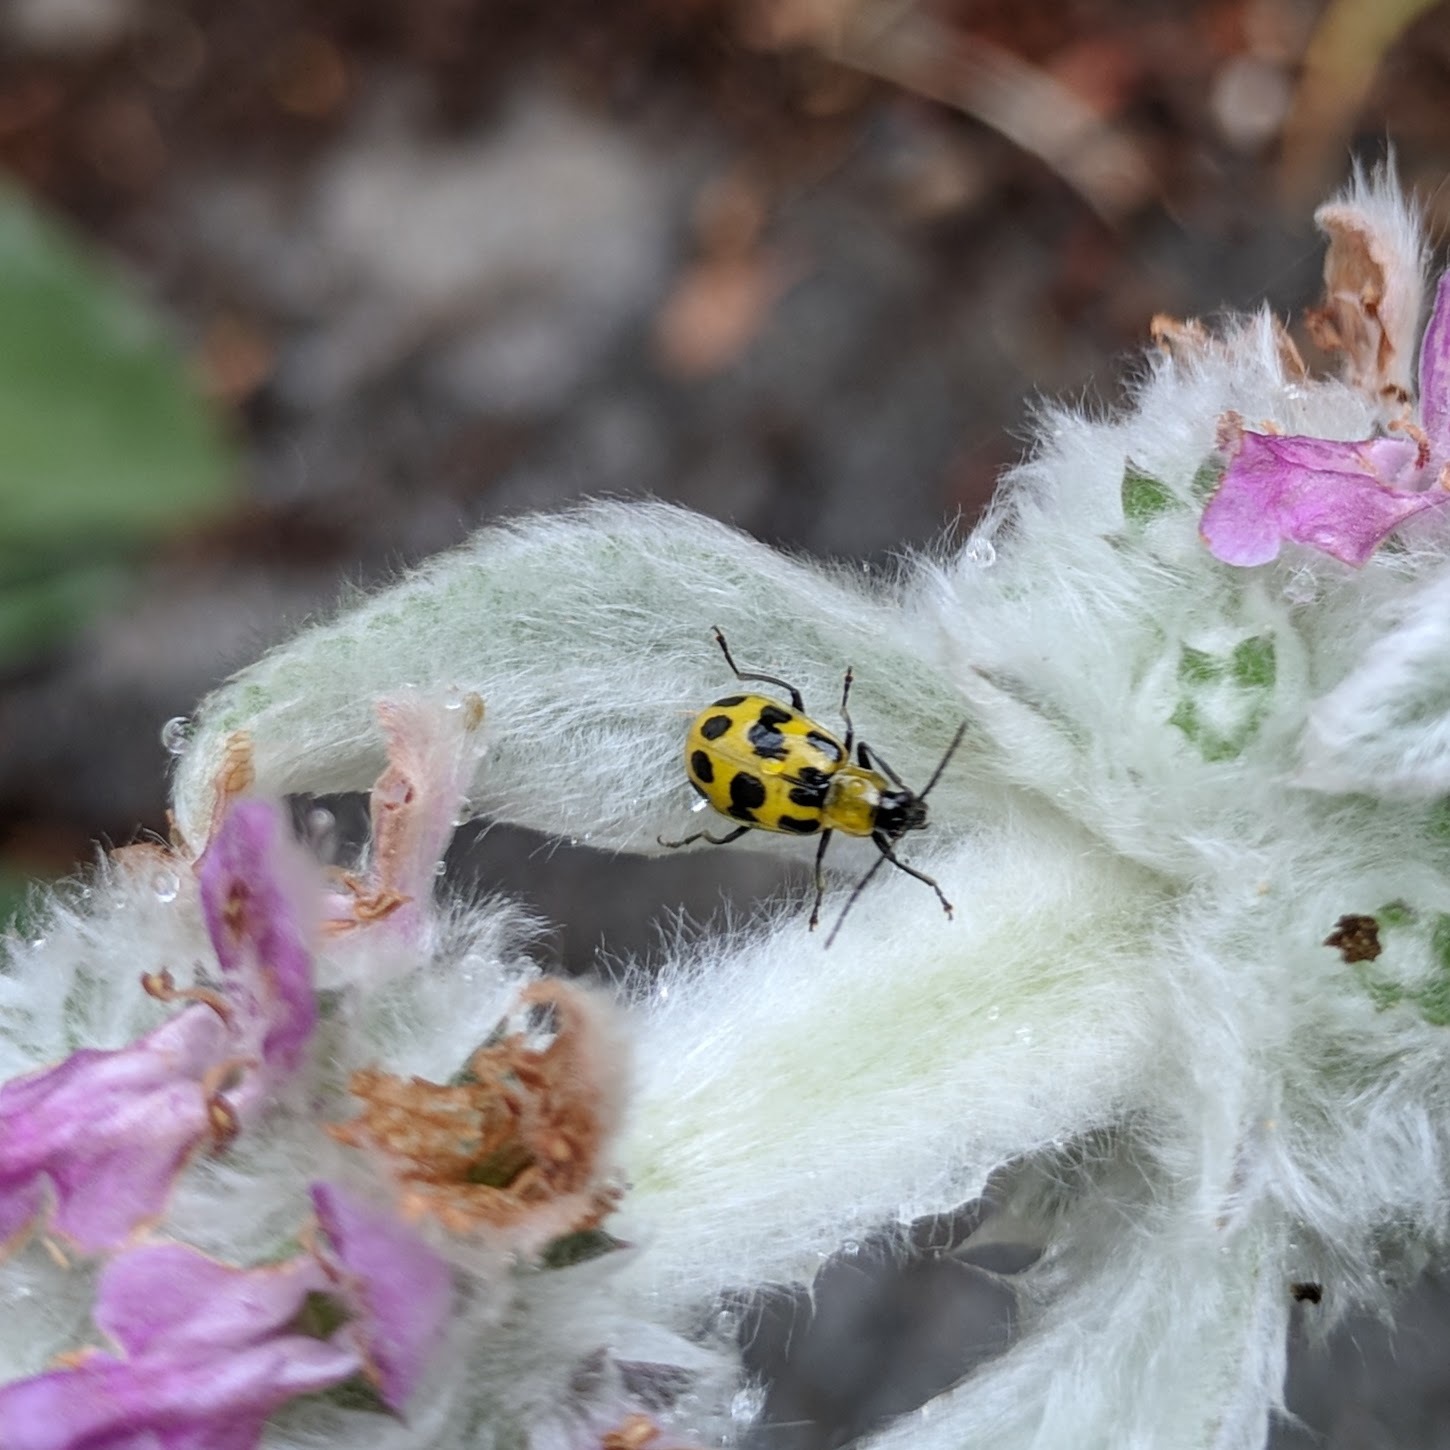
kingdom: Animalia
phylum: Arthropoda
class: Insecta
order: Coleoptera
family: Chrysomelidae
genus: Diabrotica
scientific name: Diabrotica undecimpunctata
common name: Spotted cucumber beetle
